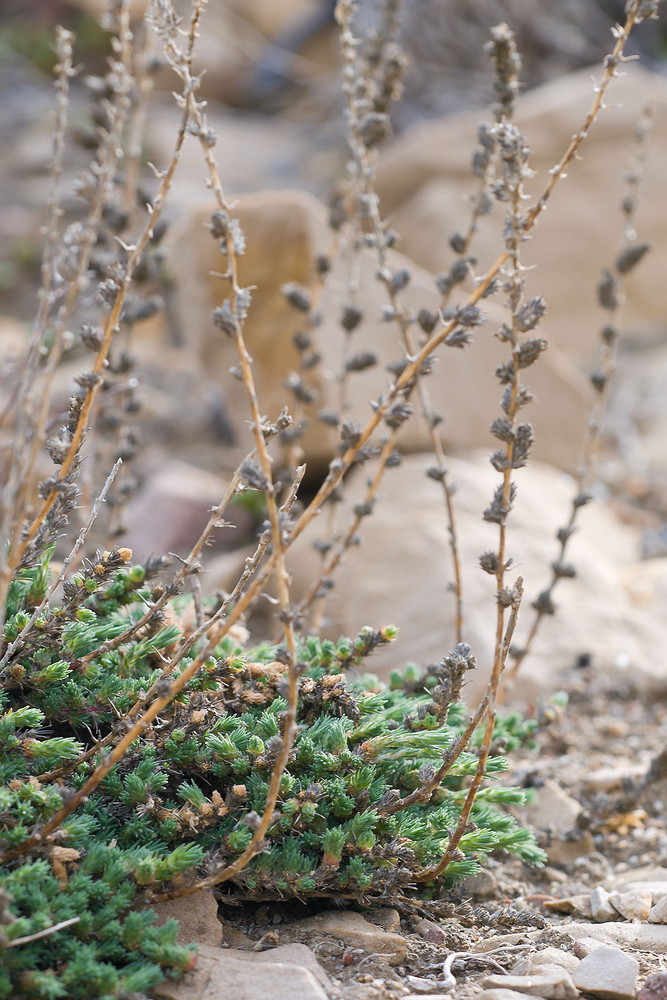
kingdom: Plantae
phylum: Tracheophyta
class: Magnoliopsida
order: Caryophyllales
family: Amaranthaceae
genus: Camphorosma
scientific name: Camphorosma monspeliaca
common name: Camphorfume
